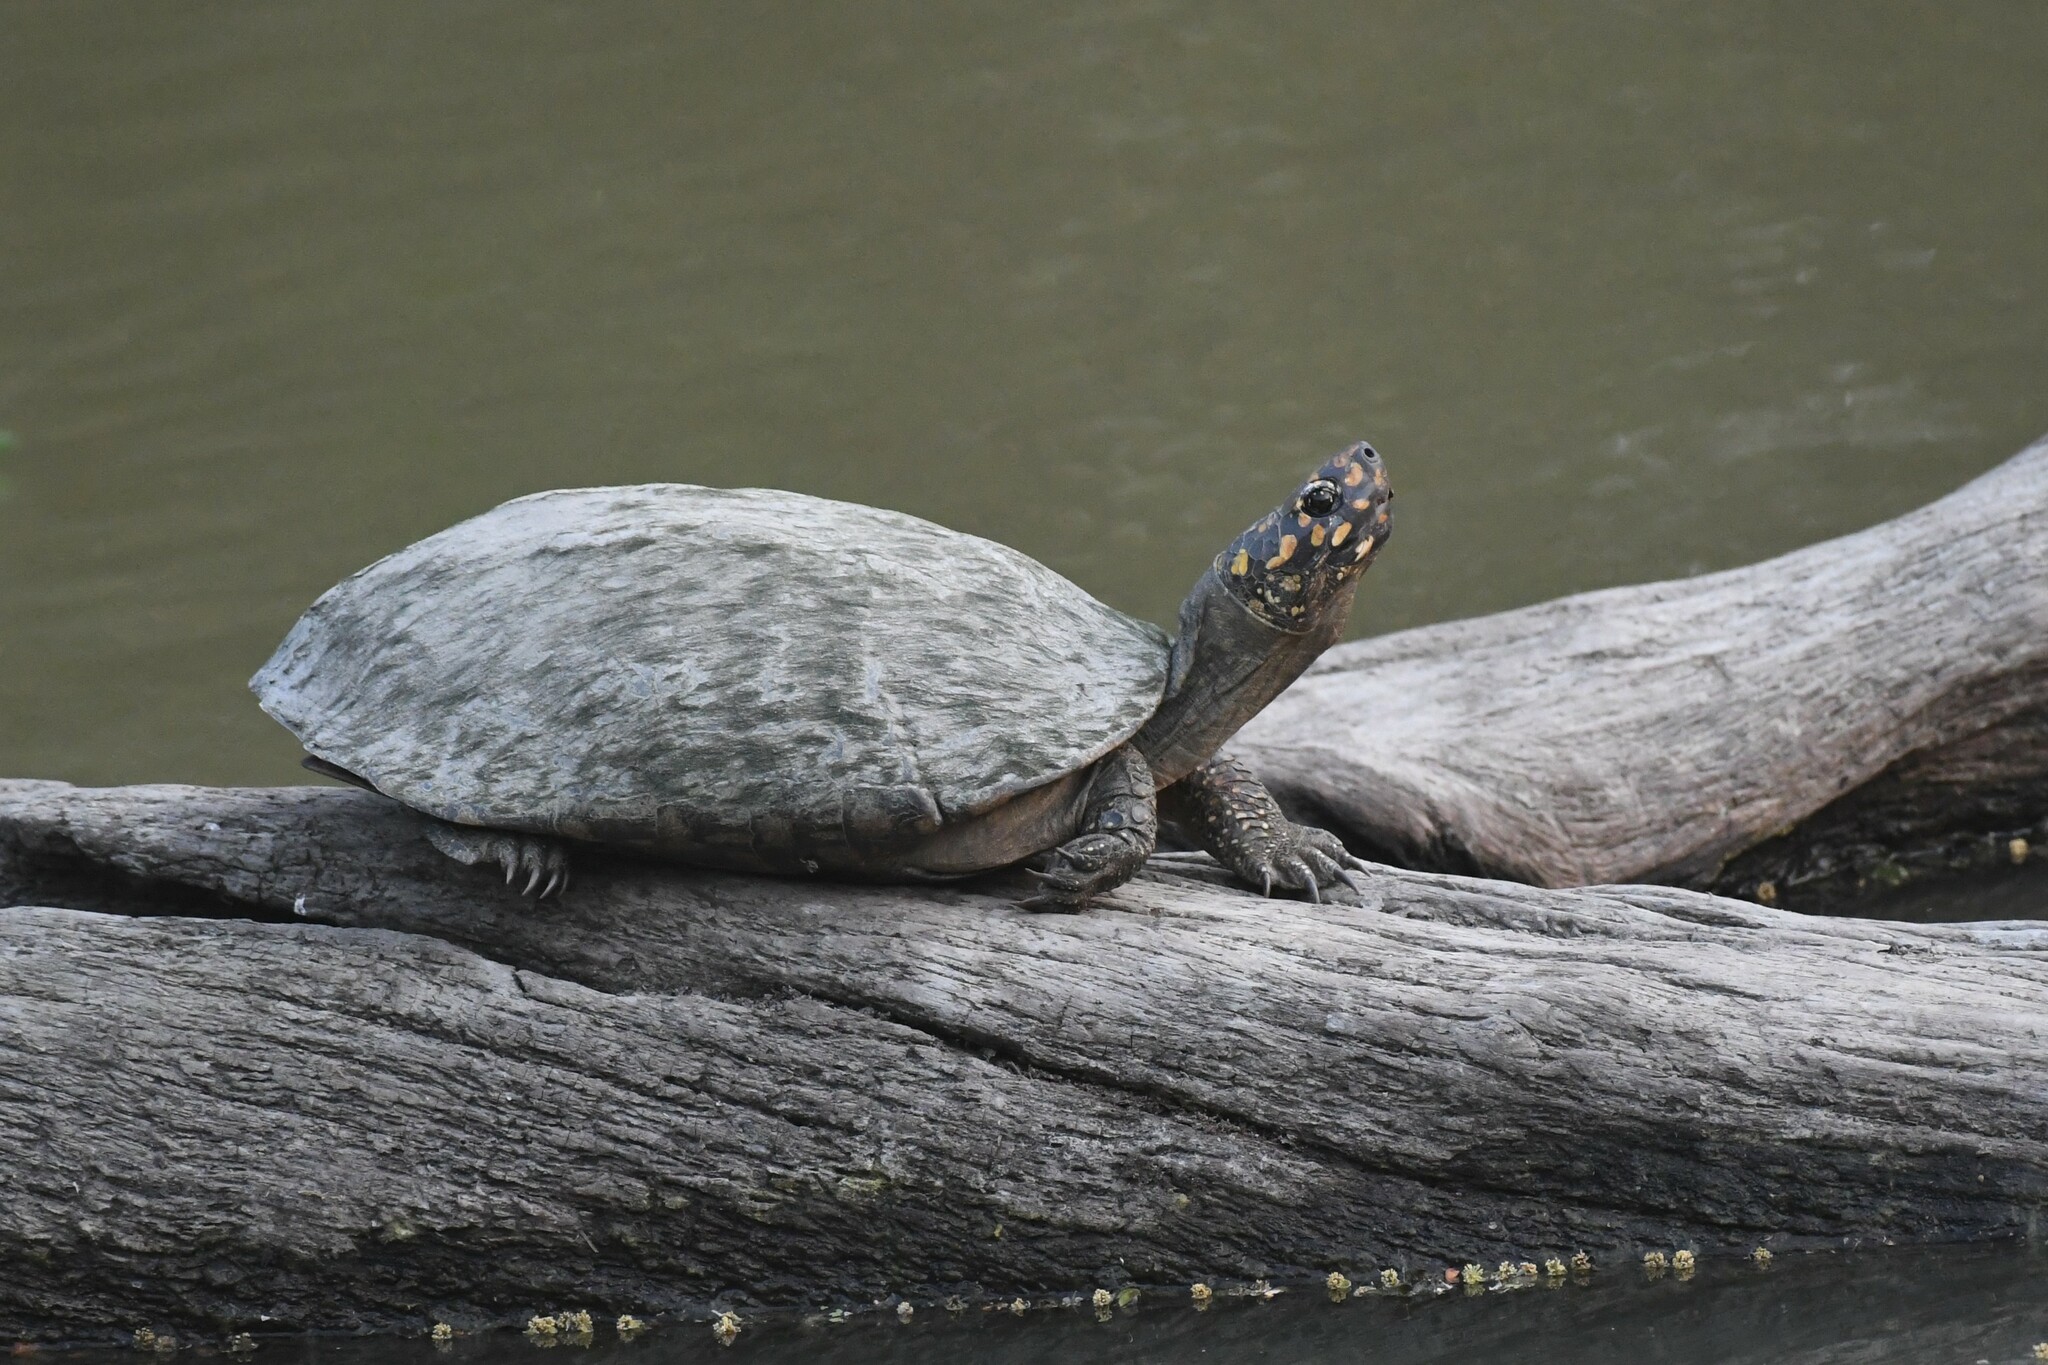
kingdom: Animalia
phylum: Chordata
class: Testudines
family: Geoemydidae
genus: Geoclemys
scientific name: Geoclemys hamiltonii
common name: Spotted pond turtle
